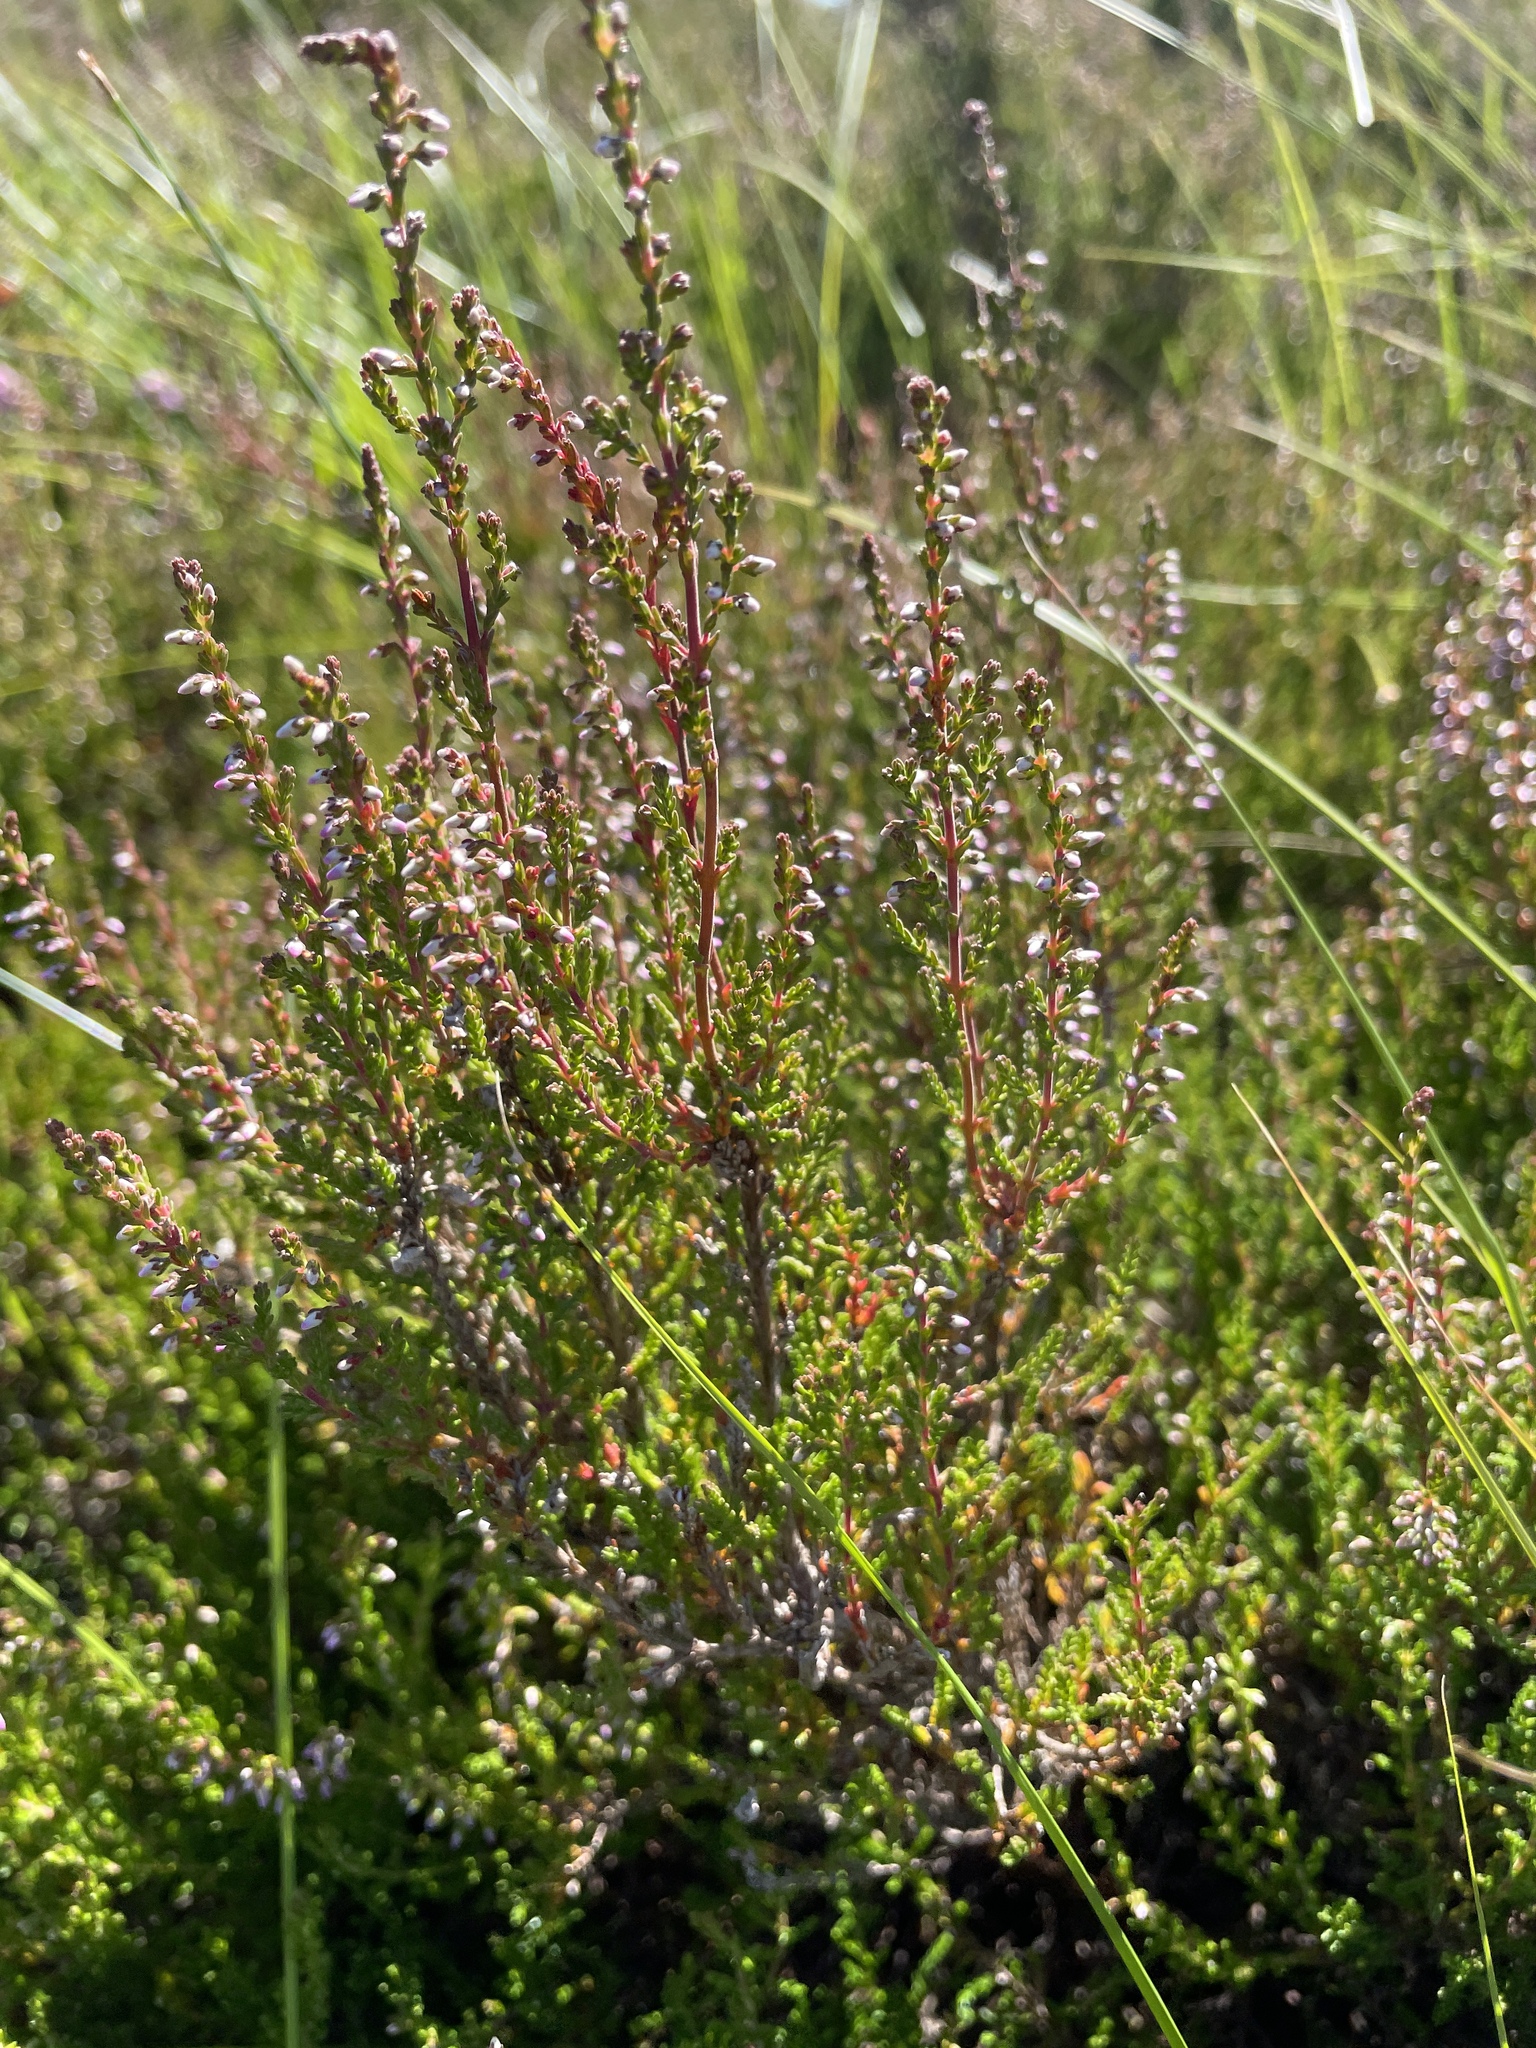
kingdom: Plantae
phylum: Tracheophyta
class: Magnoliopsida
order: Ericales
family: Ericaceae
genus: Calluna
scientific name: Calluna vulgaris
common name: Heather
